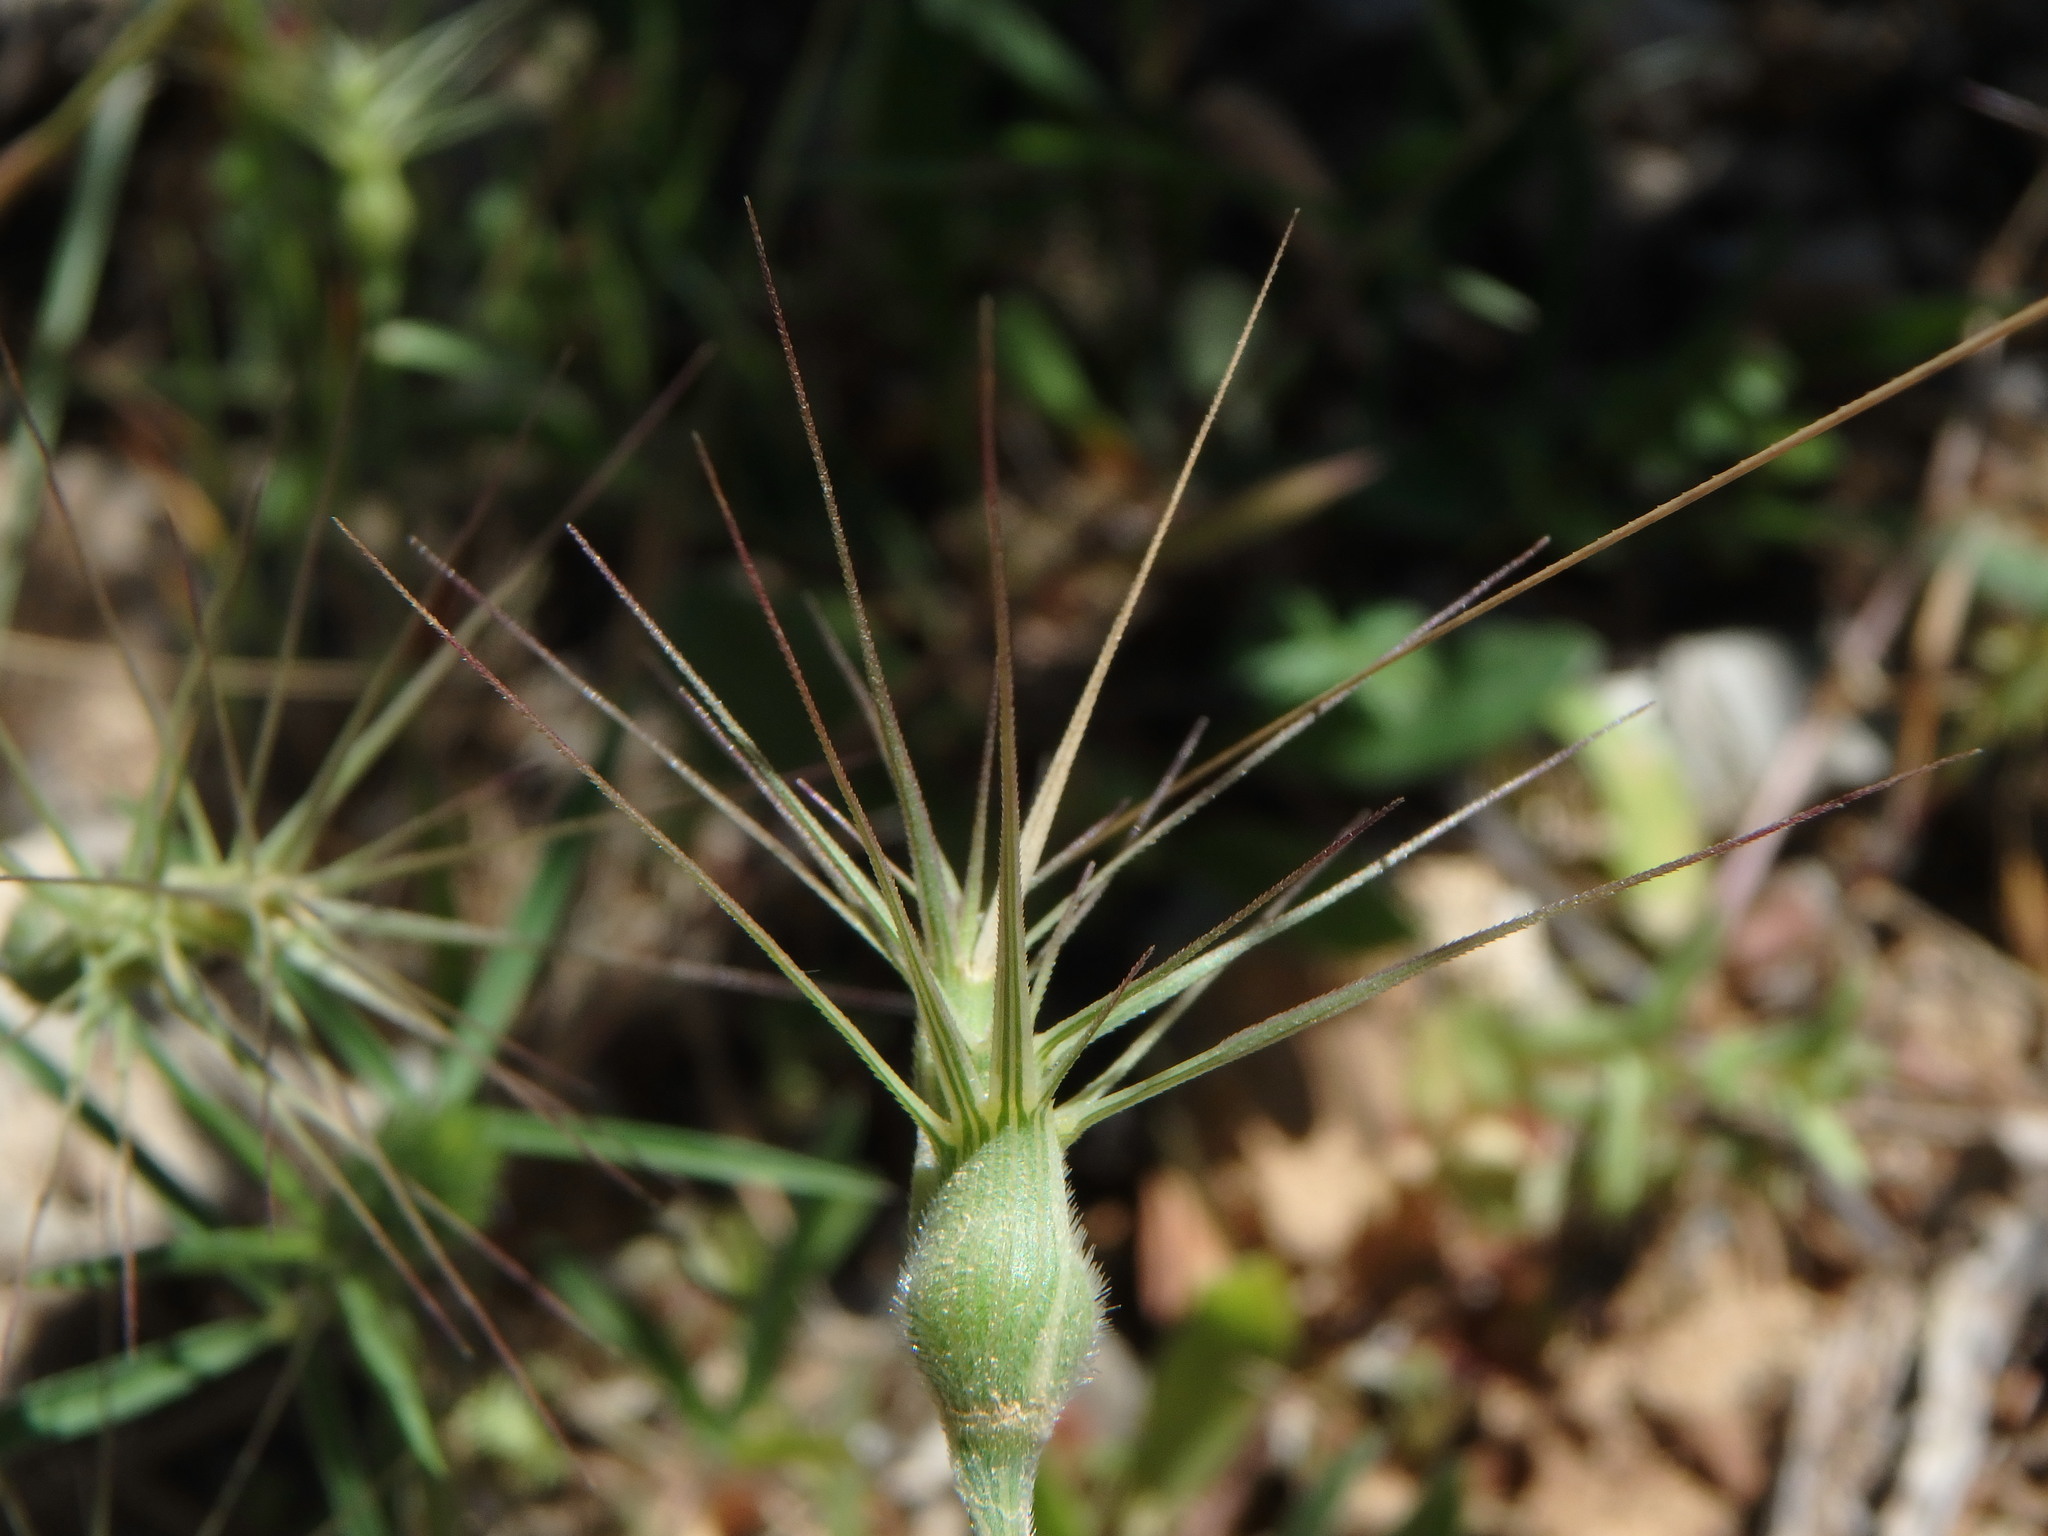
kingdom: Plantae
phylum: Tracheophyta
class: Liliopsida
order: Poales
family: Poaceae
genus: Aegilops
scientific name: Aegilops geniculata
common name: Ovate goat grass
